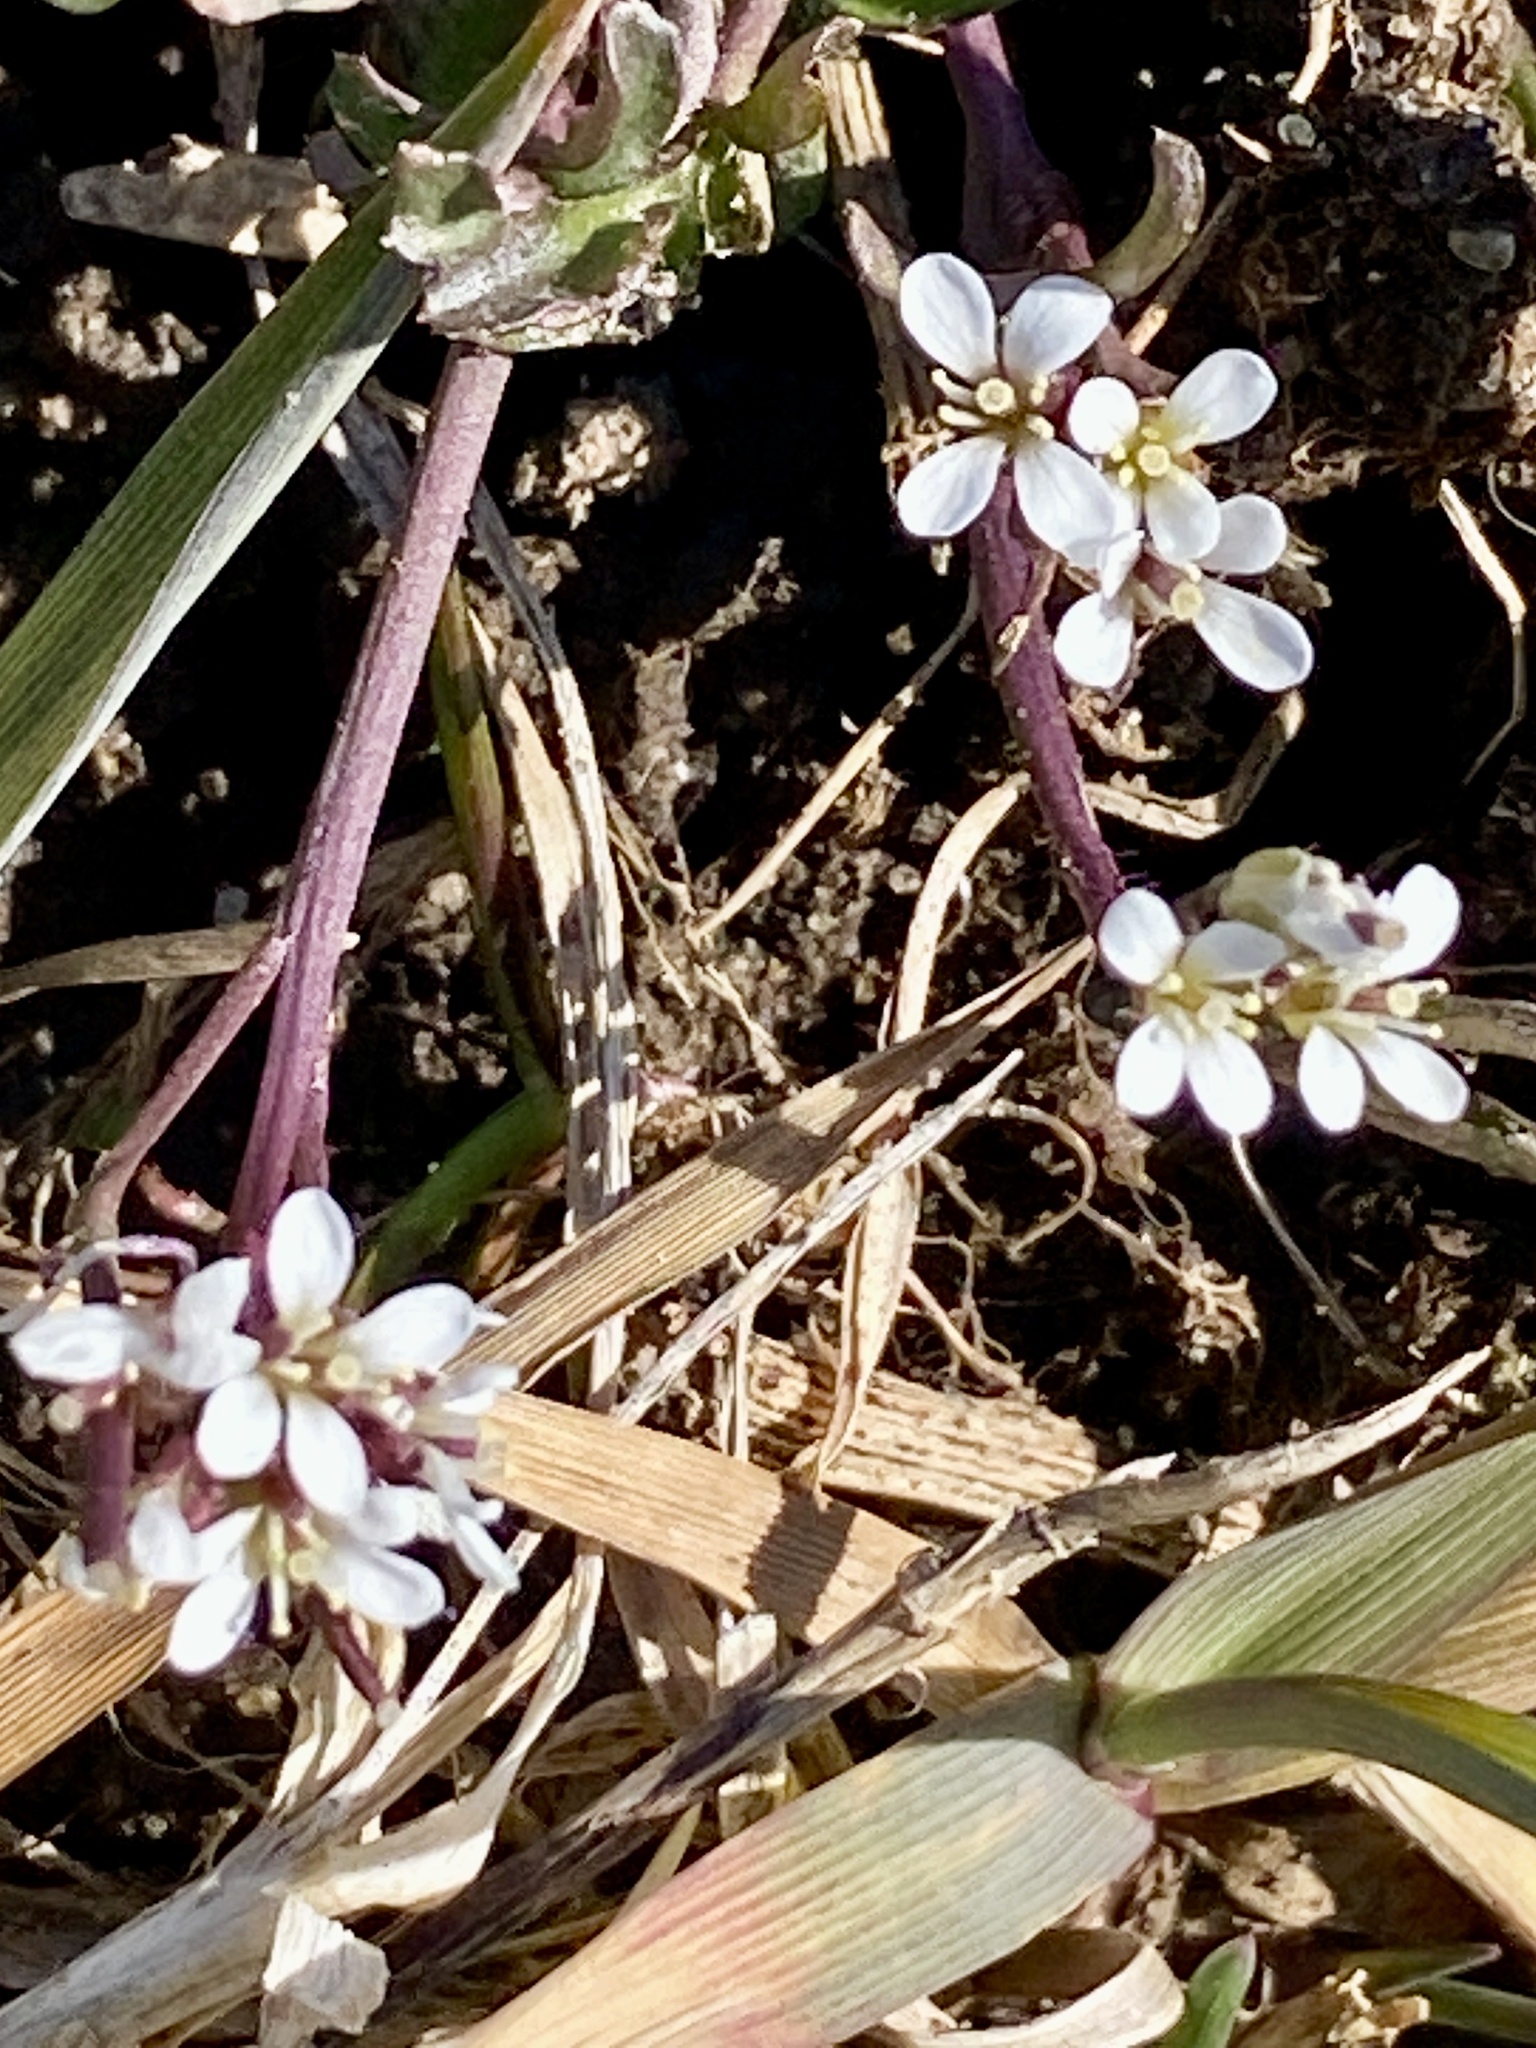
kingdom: Plantae
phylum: Tracheophyta
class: Magnoliopsida
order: Brassicales
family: Brassicaceae
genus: Cardamine
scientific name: Cardamine hirsuta
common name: Hairy bittercress
